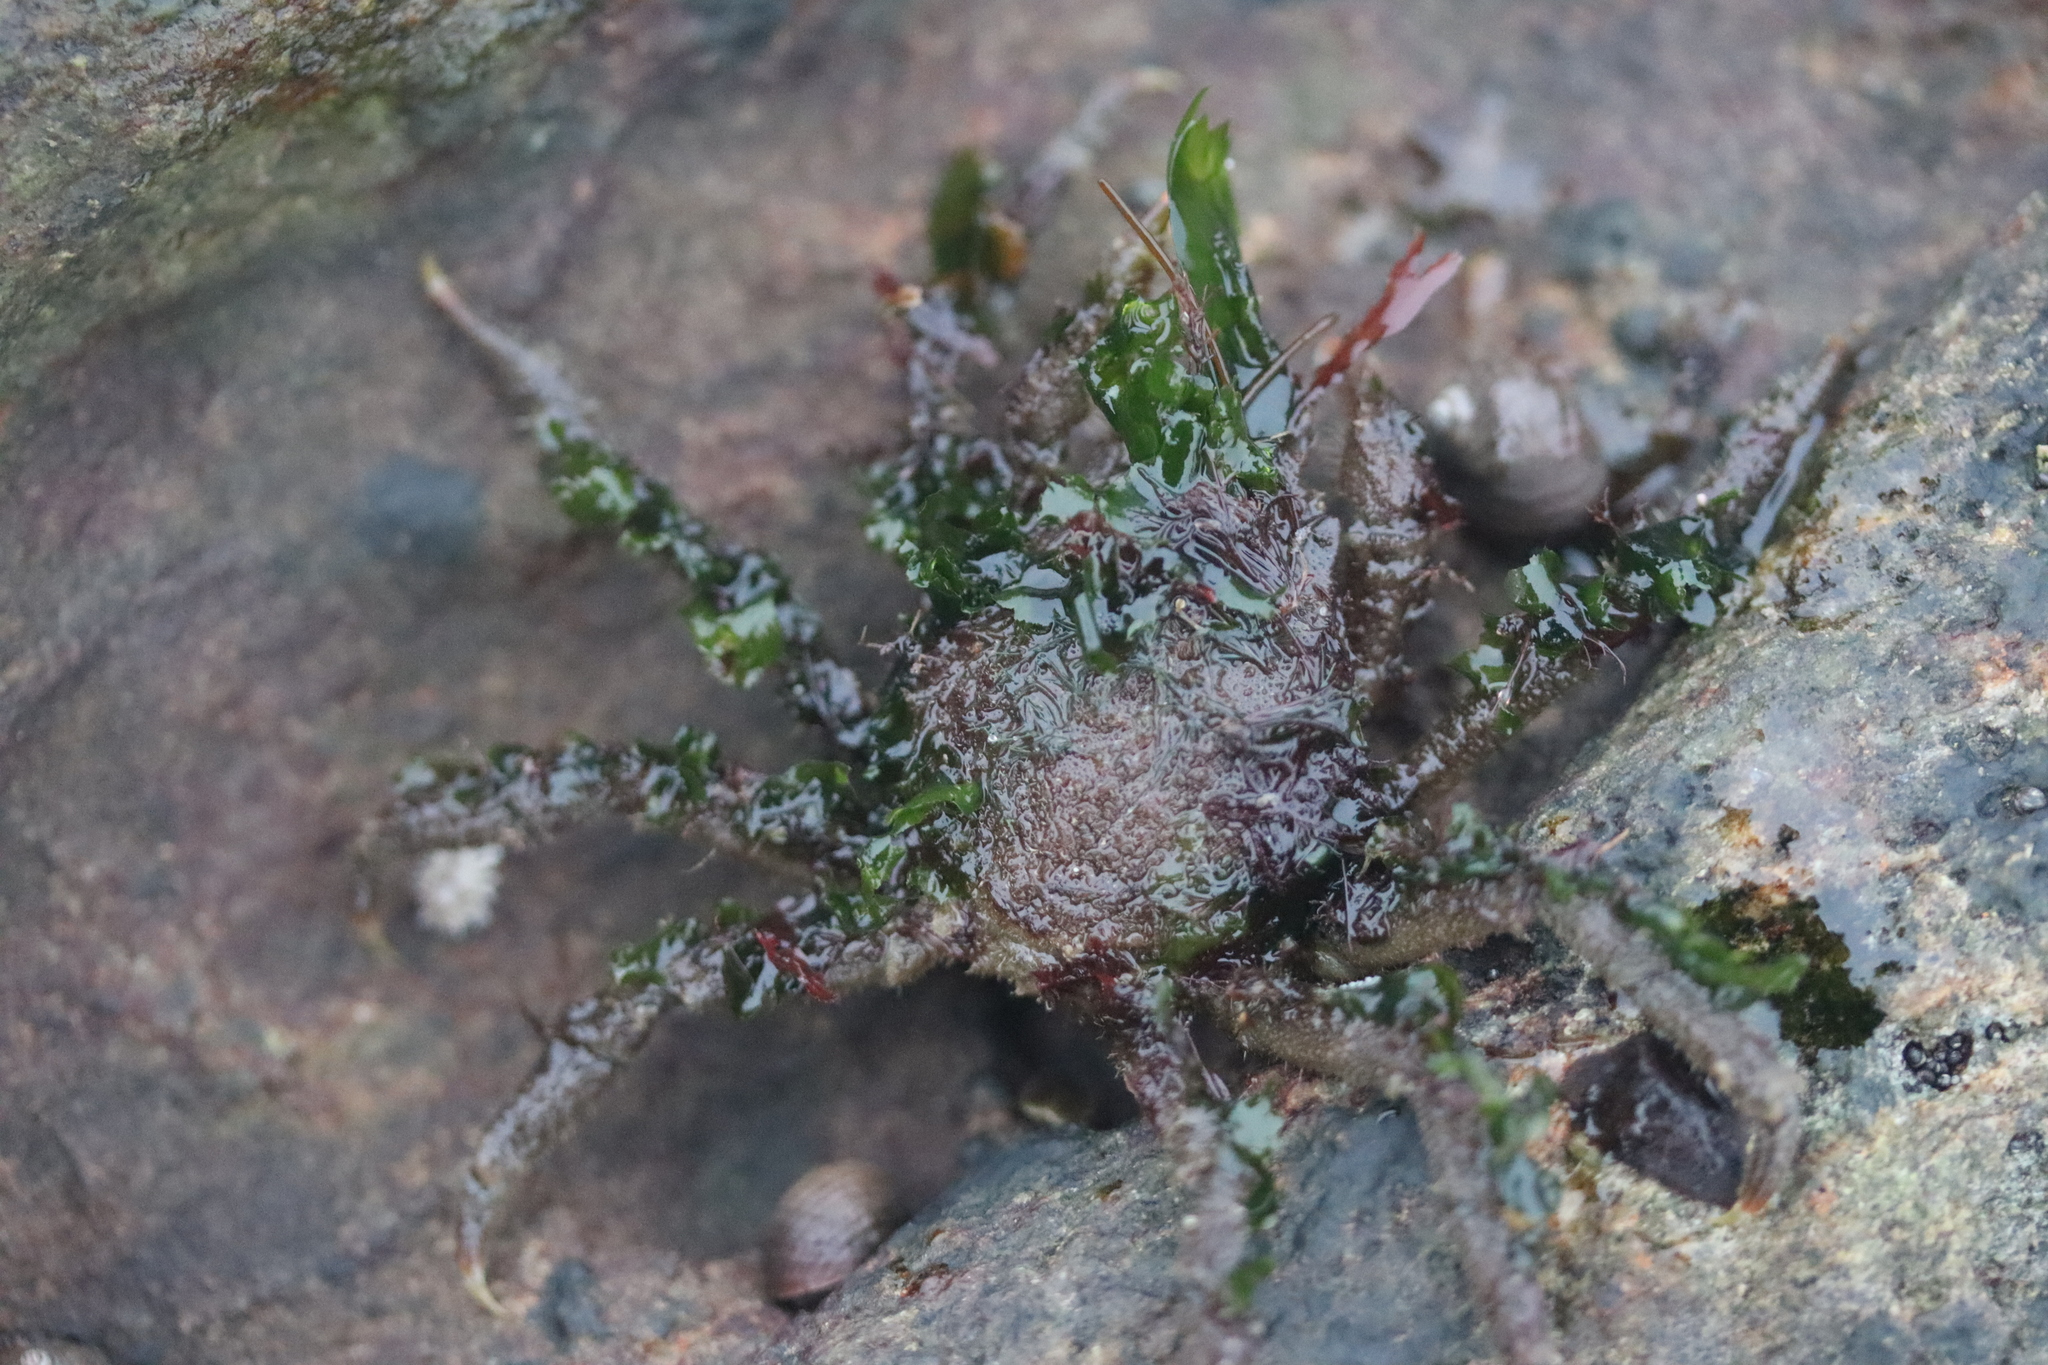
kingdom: Animalia
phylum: Arthropoda
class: Malacostraca
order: Decapoda
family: Oregoniidae
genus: Hyas
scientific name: Hyas araneus
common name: Great spider crab
